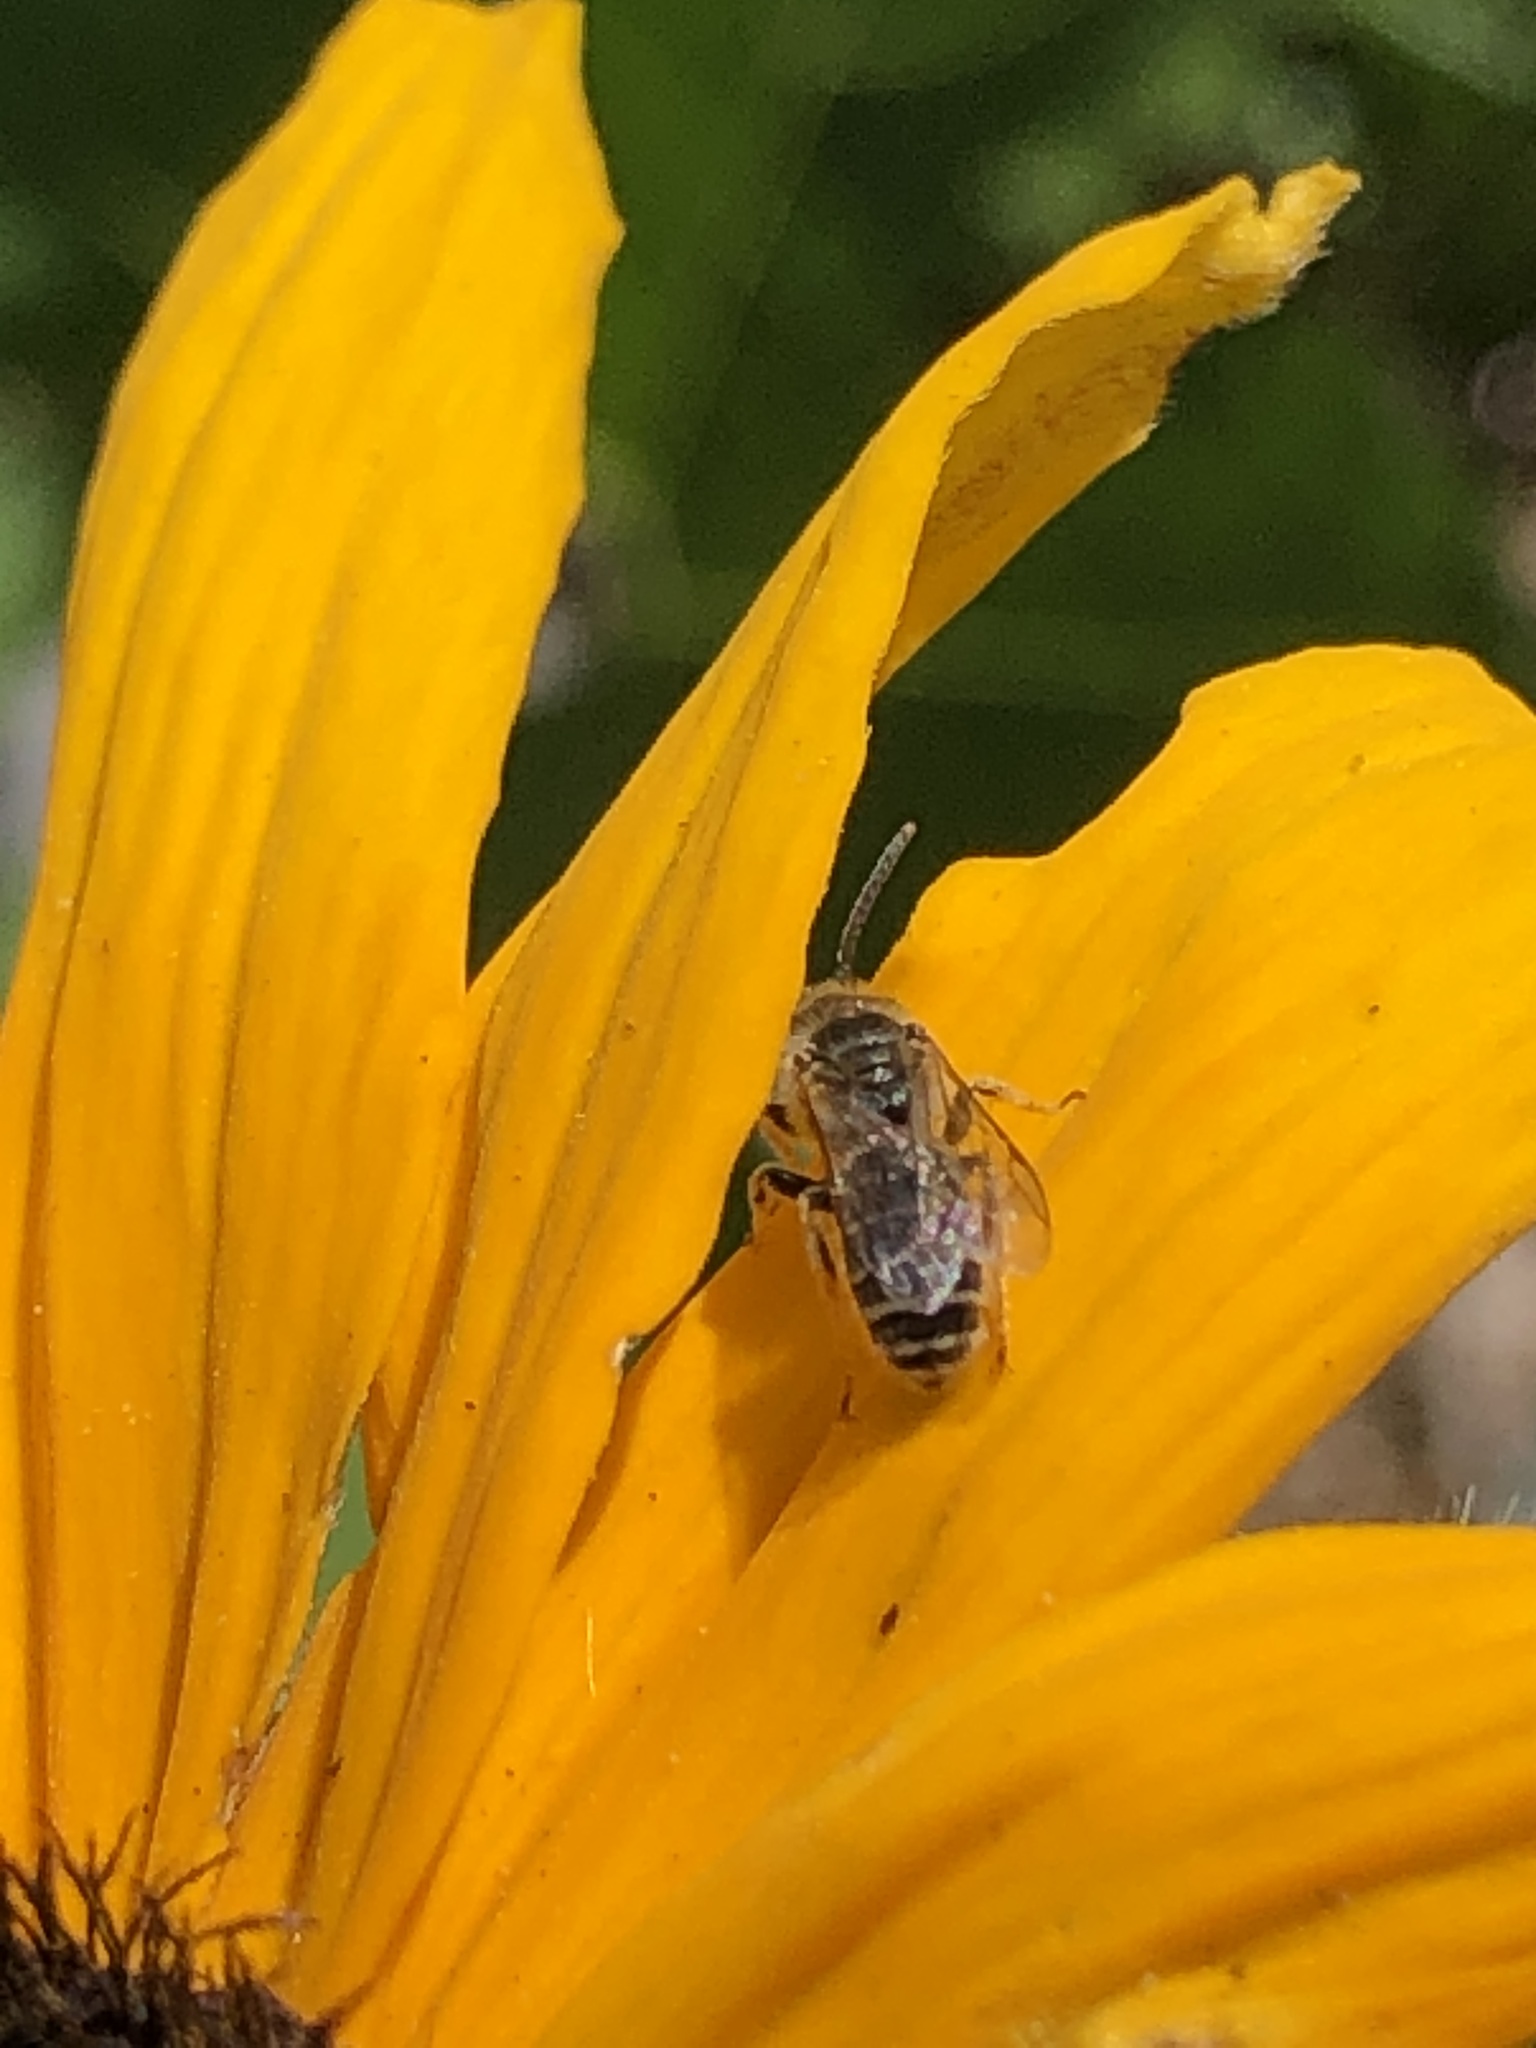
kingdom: Animalia
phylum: Arthropoda
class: Insecta
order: Hymenoptera
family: Halictidae
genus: Halictus
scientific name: Halictus ligatus
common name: Ligated furrow bee
